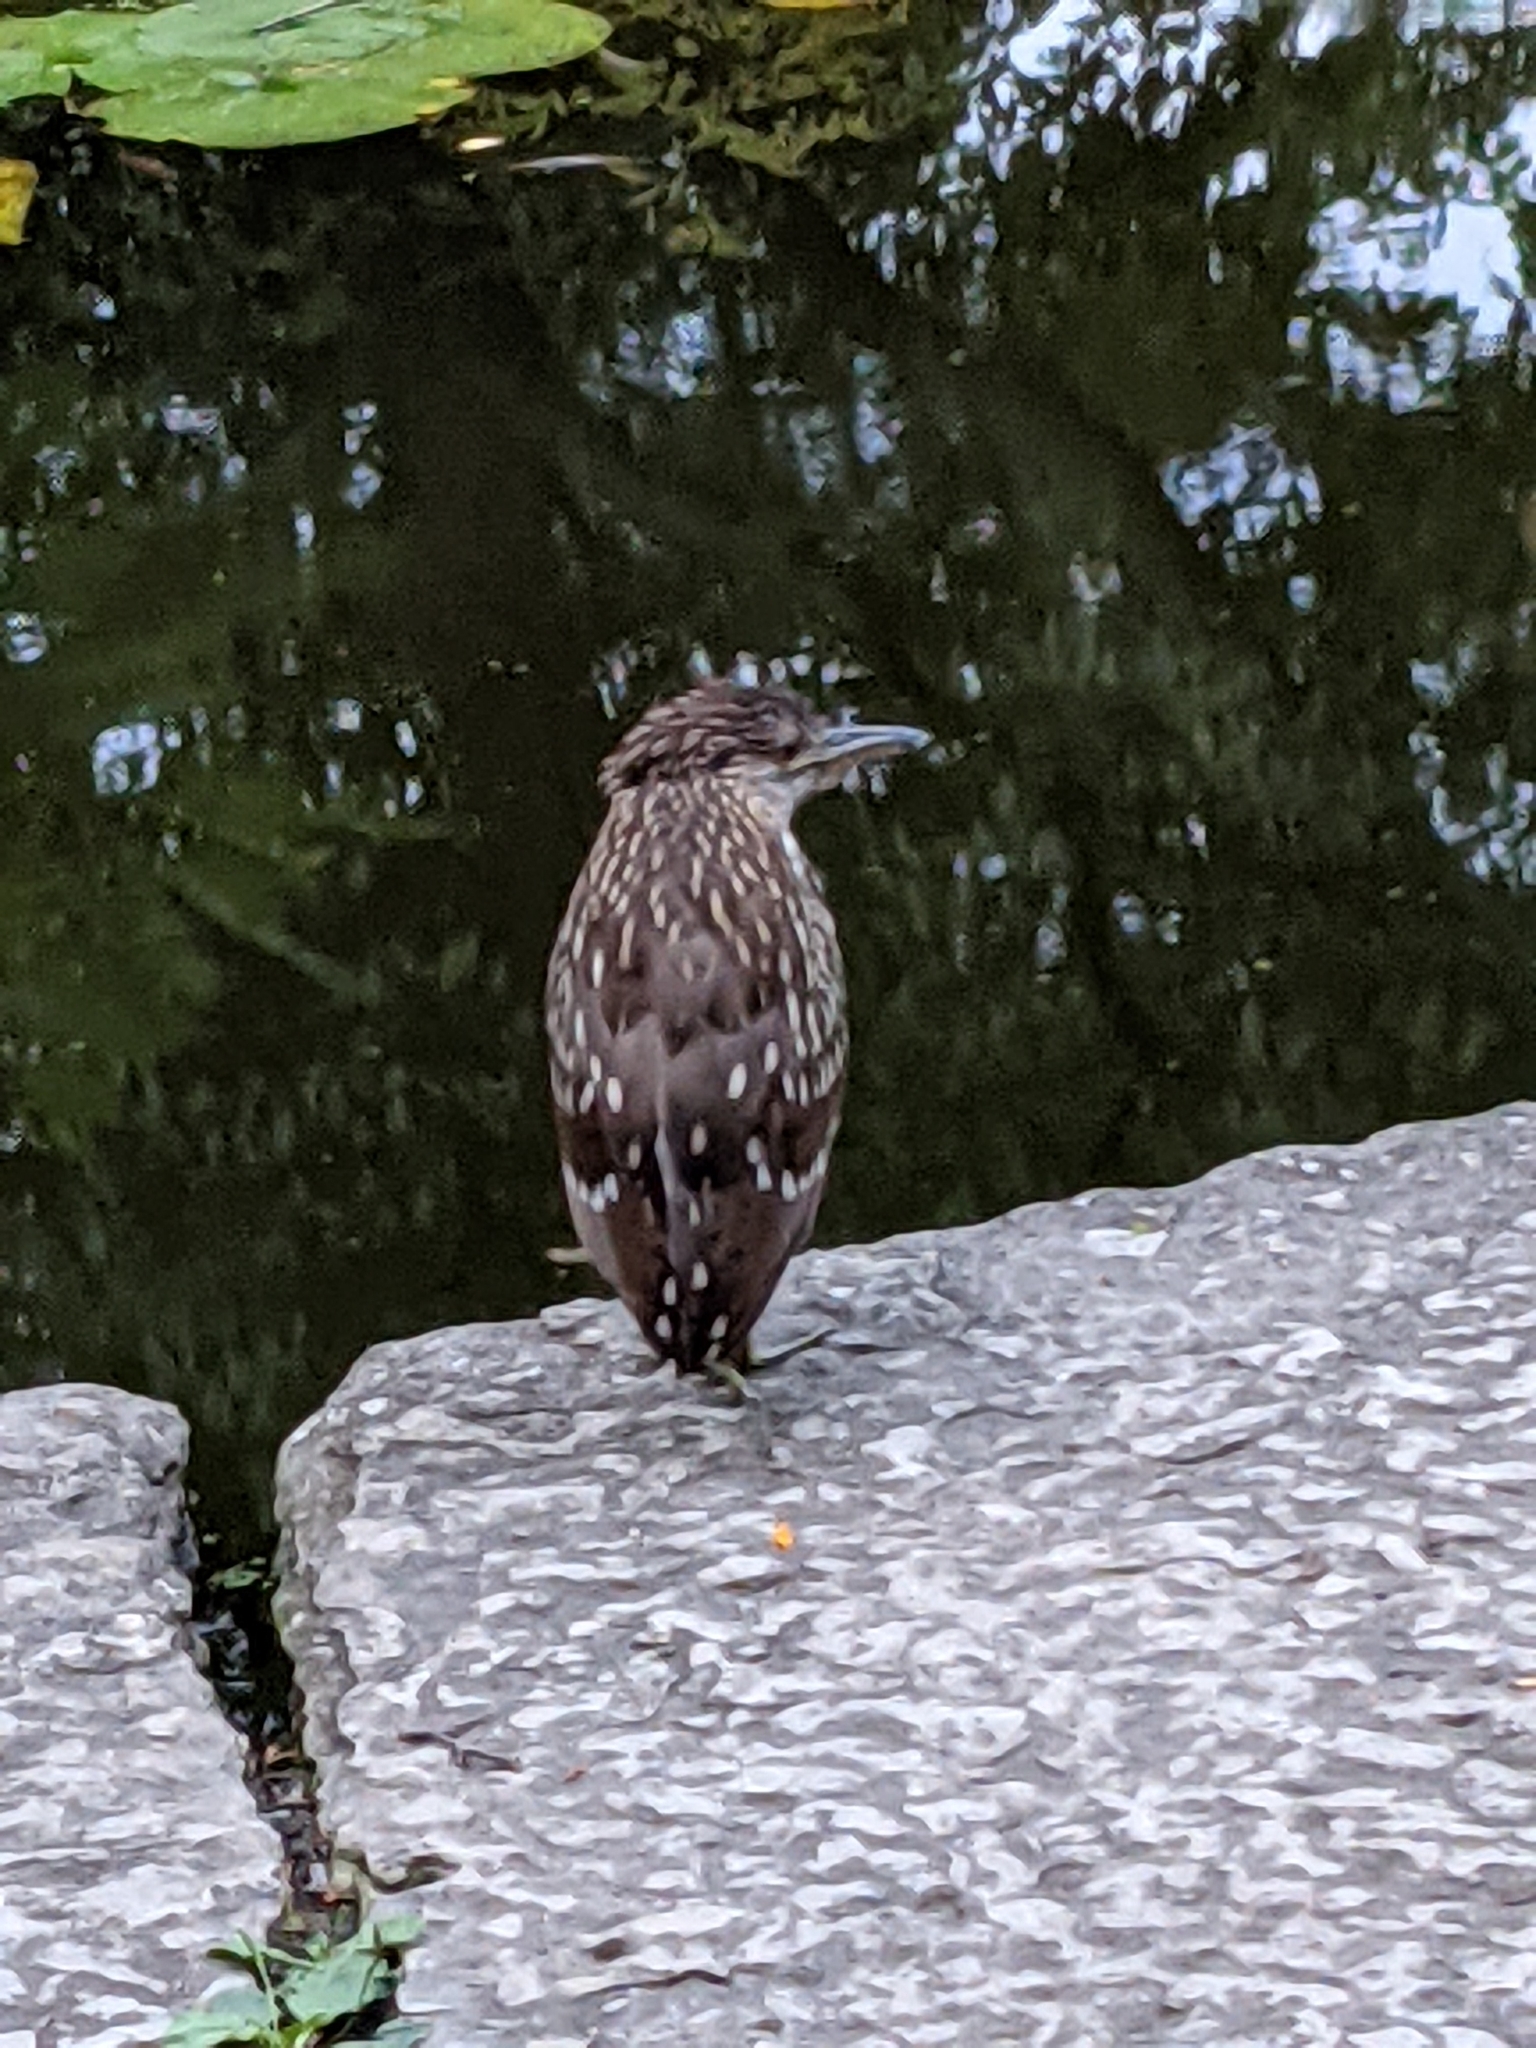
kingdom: Animalia
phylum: Chordata
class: Aves
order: Pelecaniformes
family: Ardeidae
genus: Nycticorax
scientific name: Nycticorax nycticorax
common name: Black-crowned night heron
